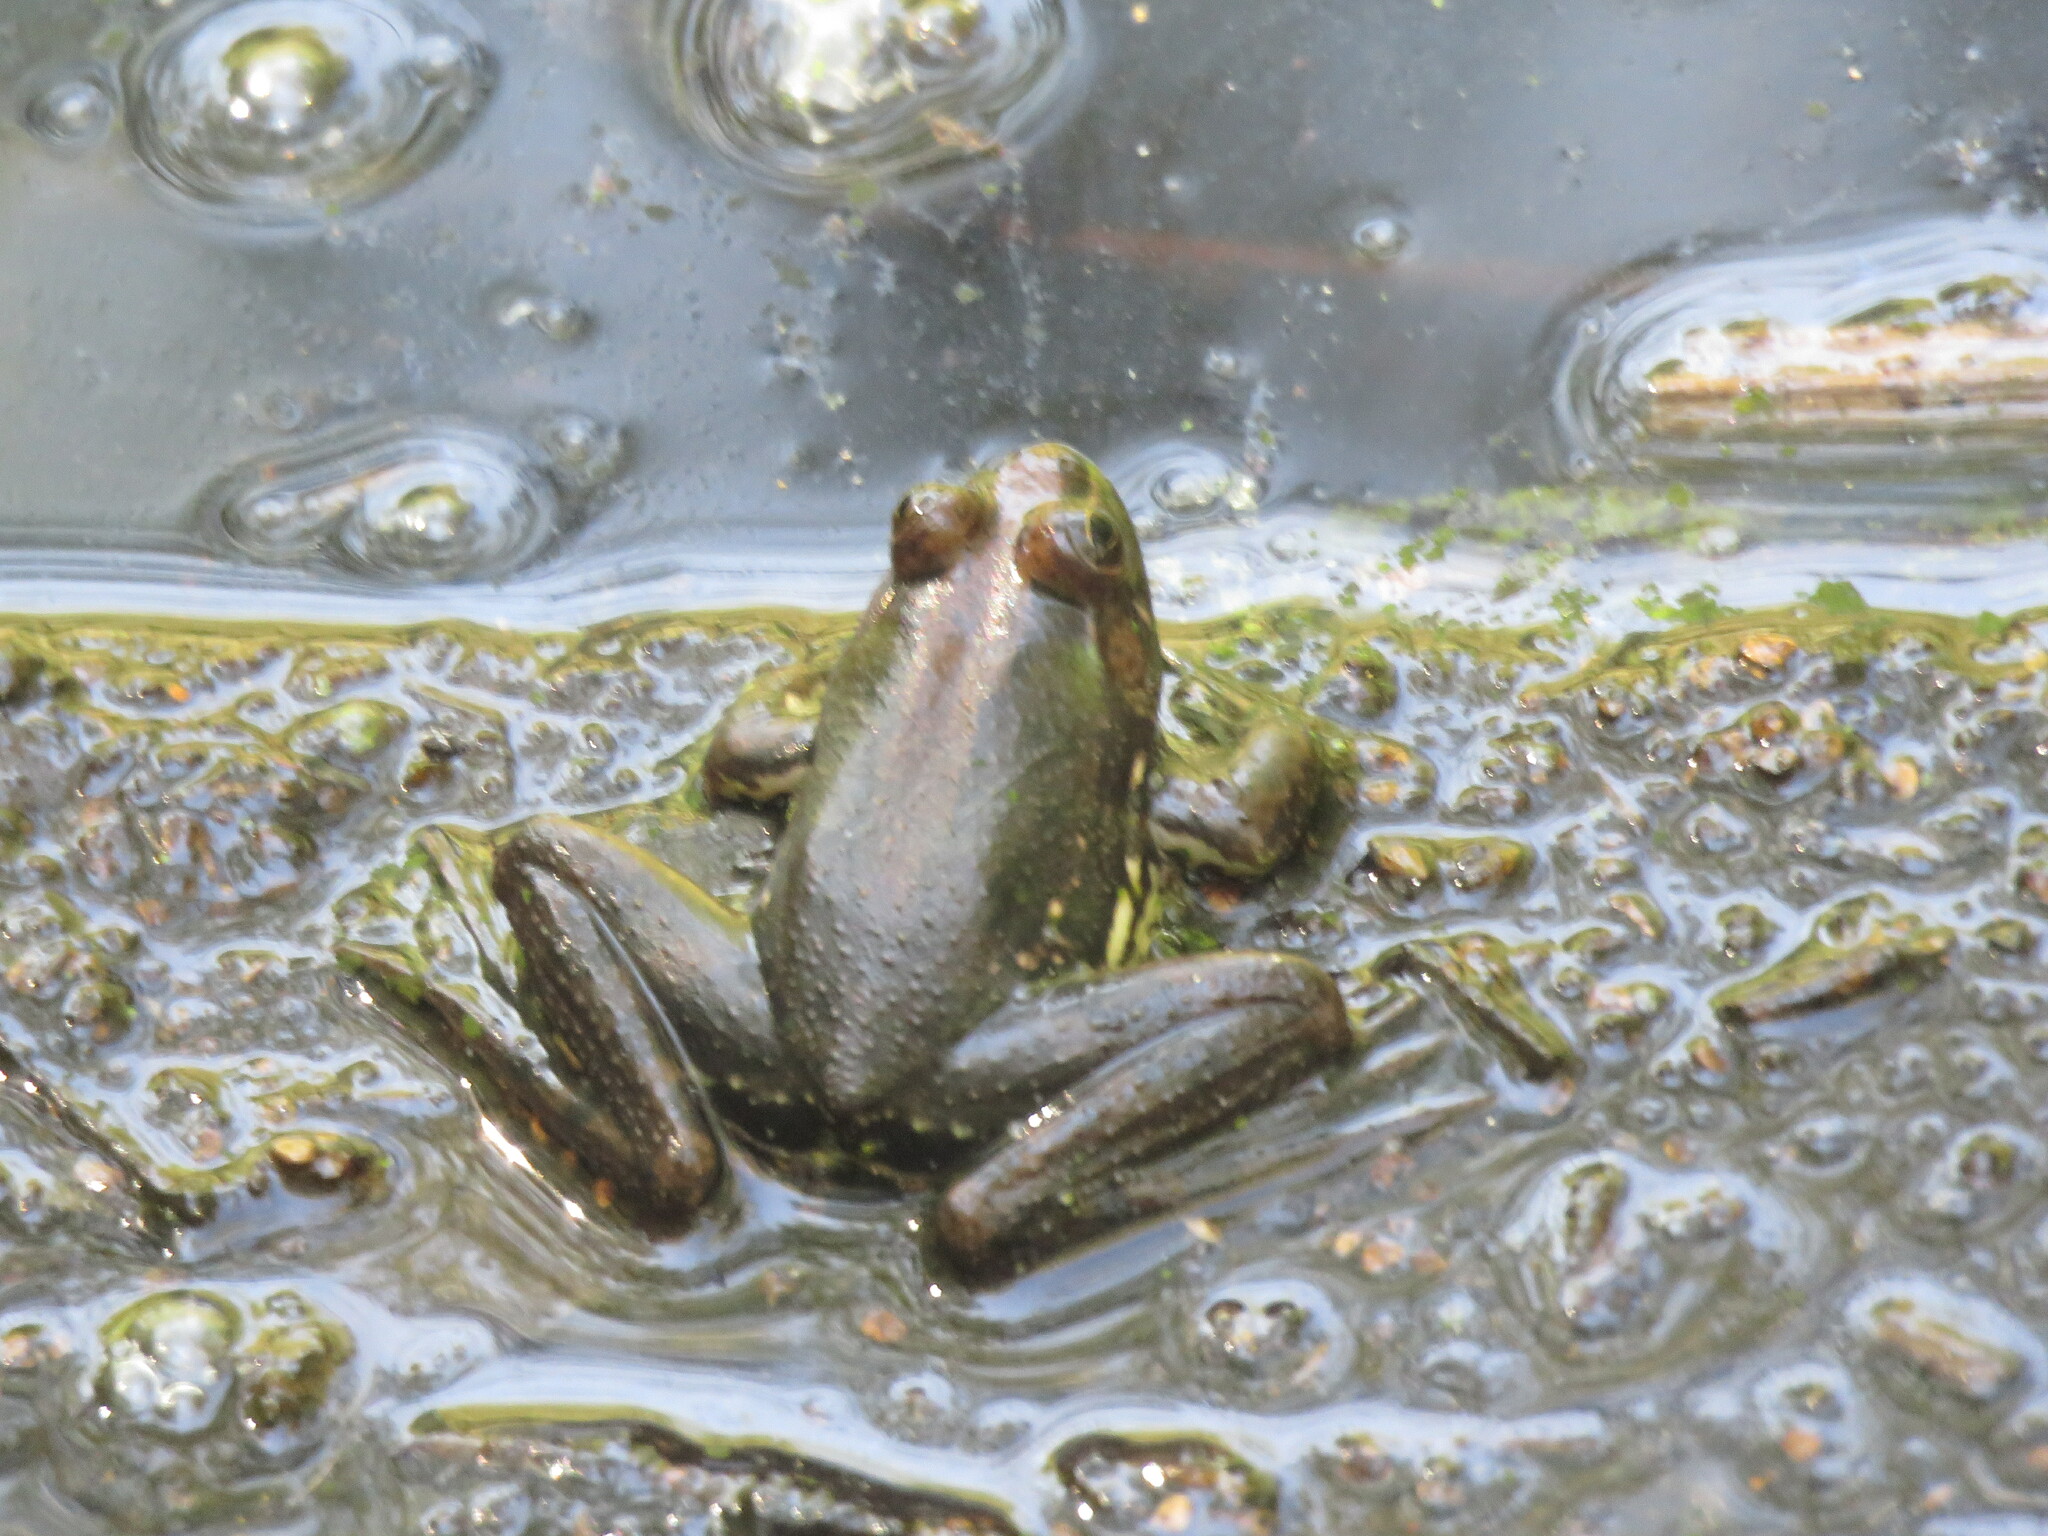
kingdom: Animalia
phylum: Chordata
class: Amphibia
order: Anura
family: Hylidae
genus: Pseudis
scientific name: Pseudis minuta
